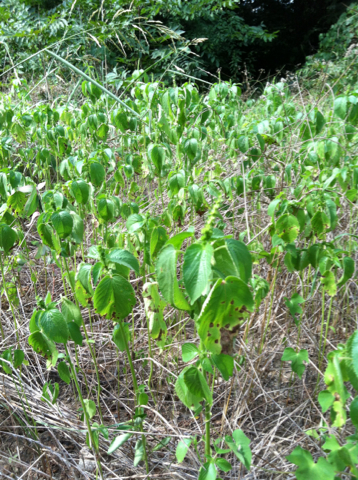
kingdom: Plantae
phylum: Tracheophyta
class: Magnoliopsida
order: Malpighiales
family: Euphorbiaceae
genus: Acalypha
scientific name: Acalypha ostryifolia
